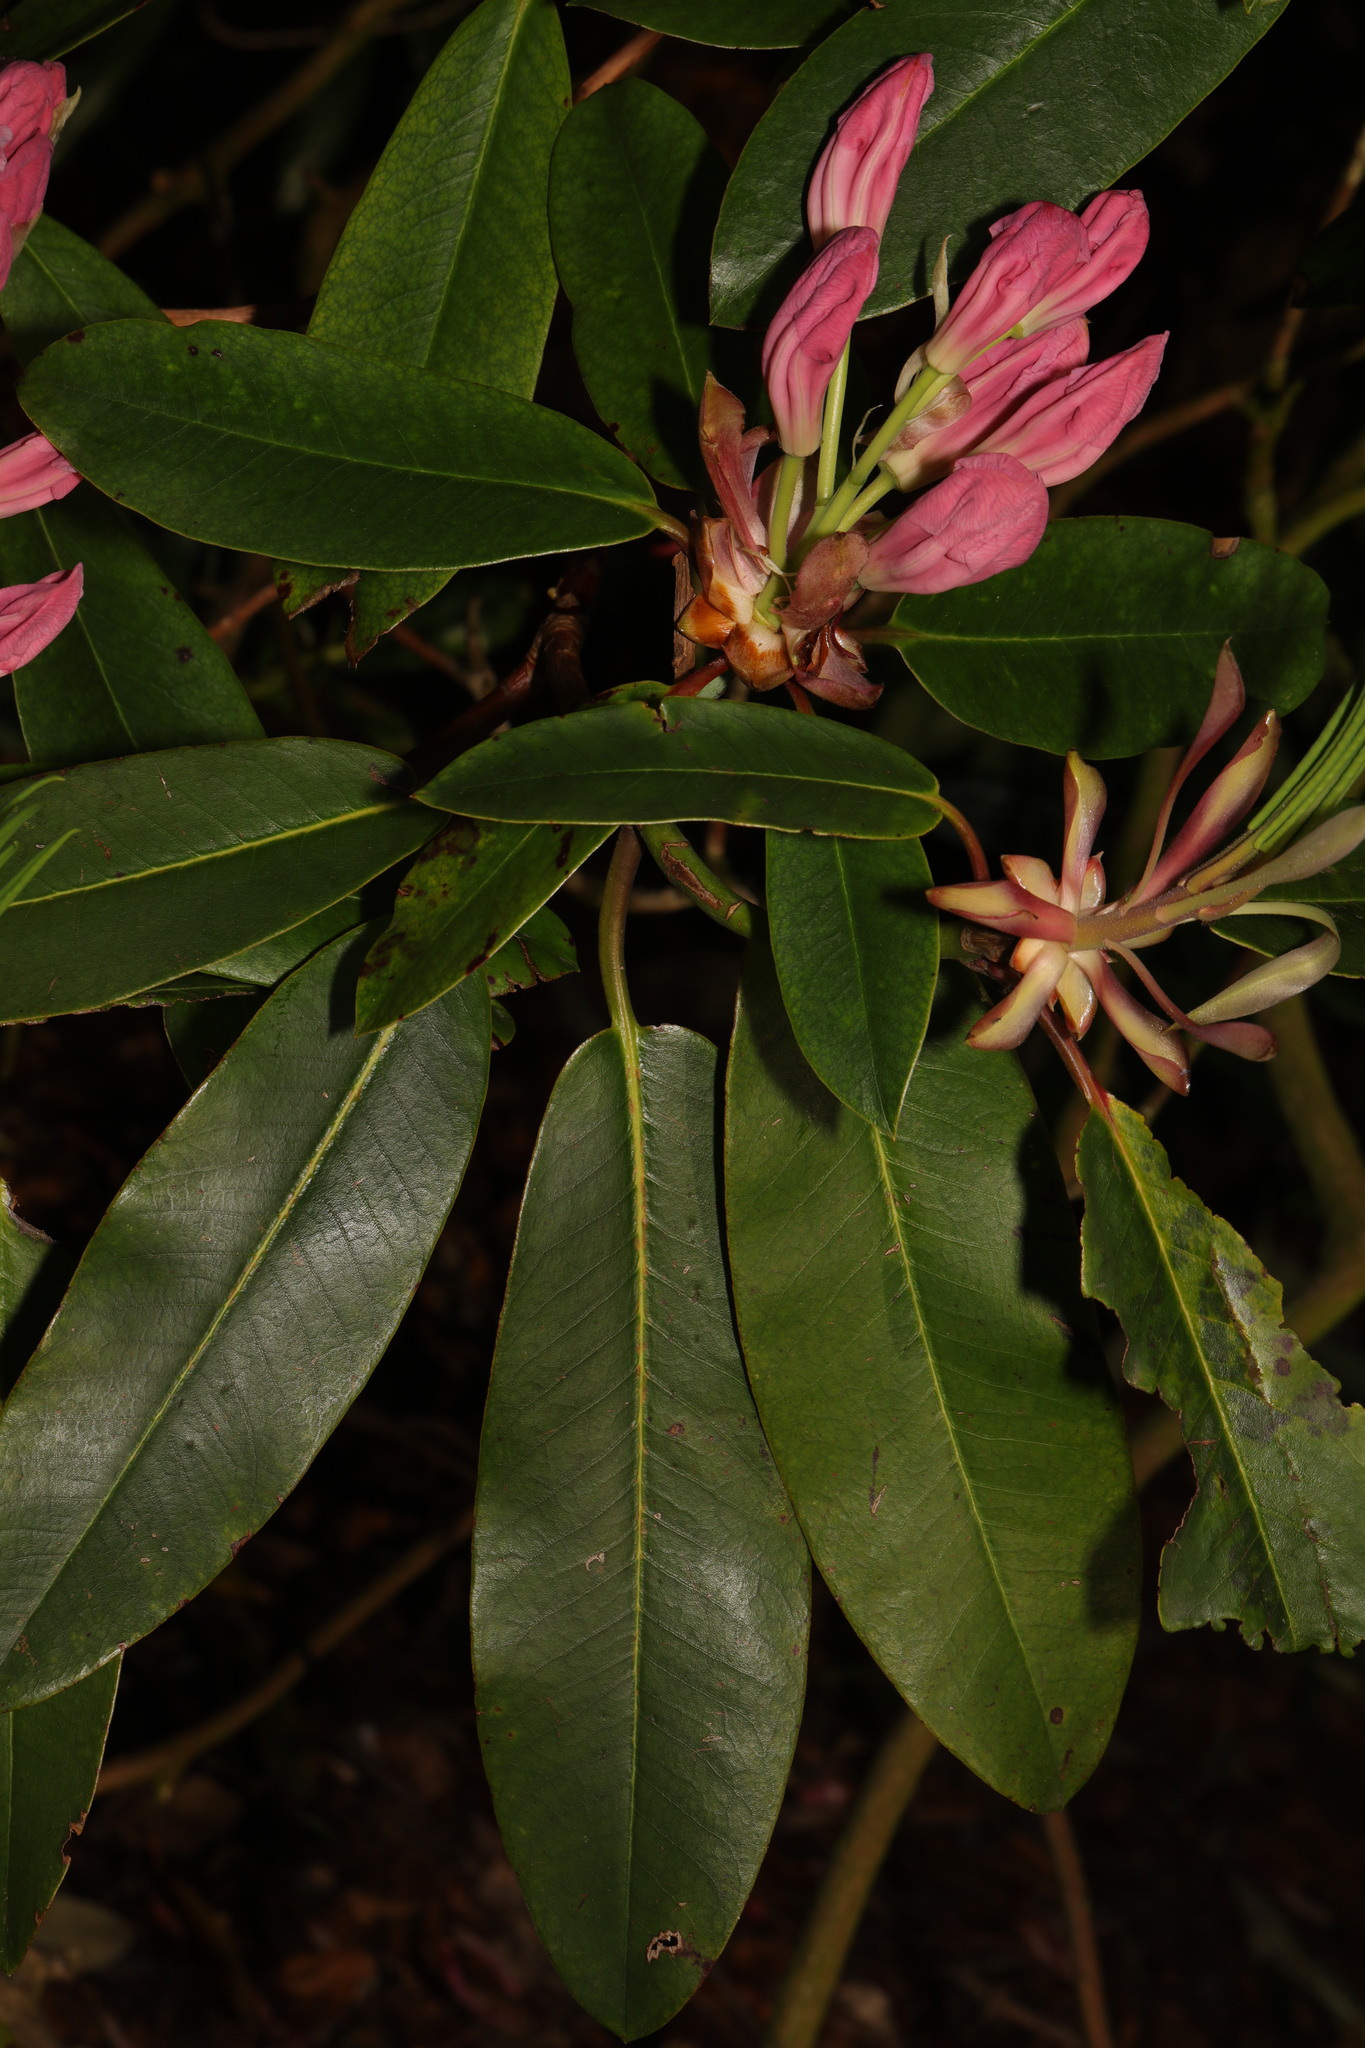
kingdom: Plantae
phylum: Tracheophyta
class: Magnoliopsida
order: Ericales
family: Ericaceae
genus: Rhododendron
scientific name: Rhododendron
